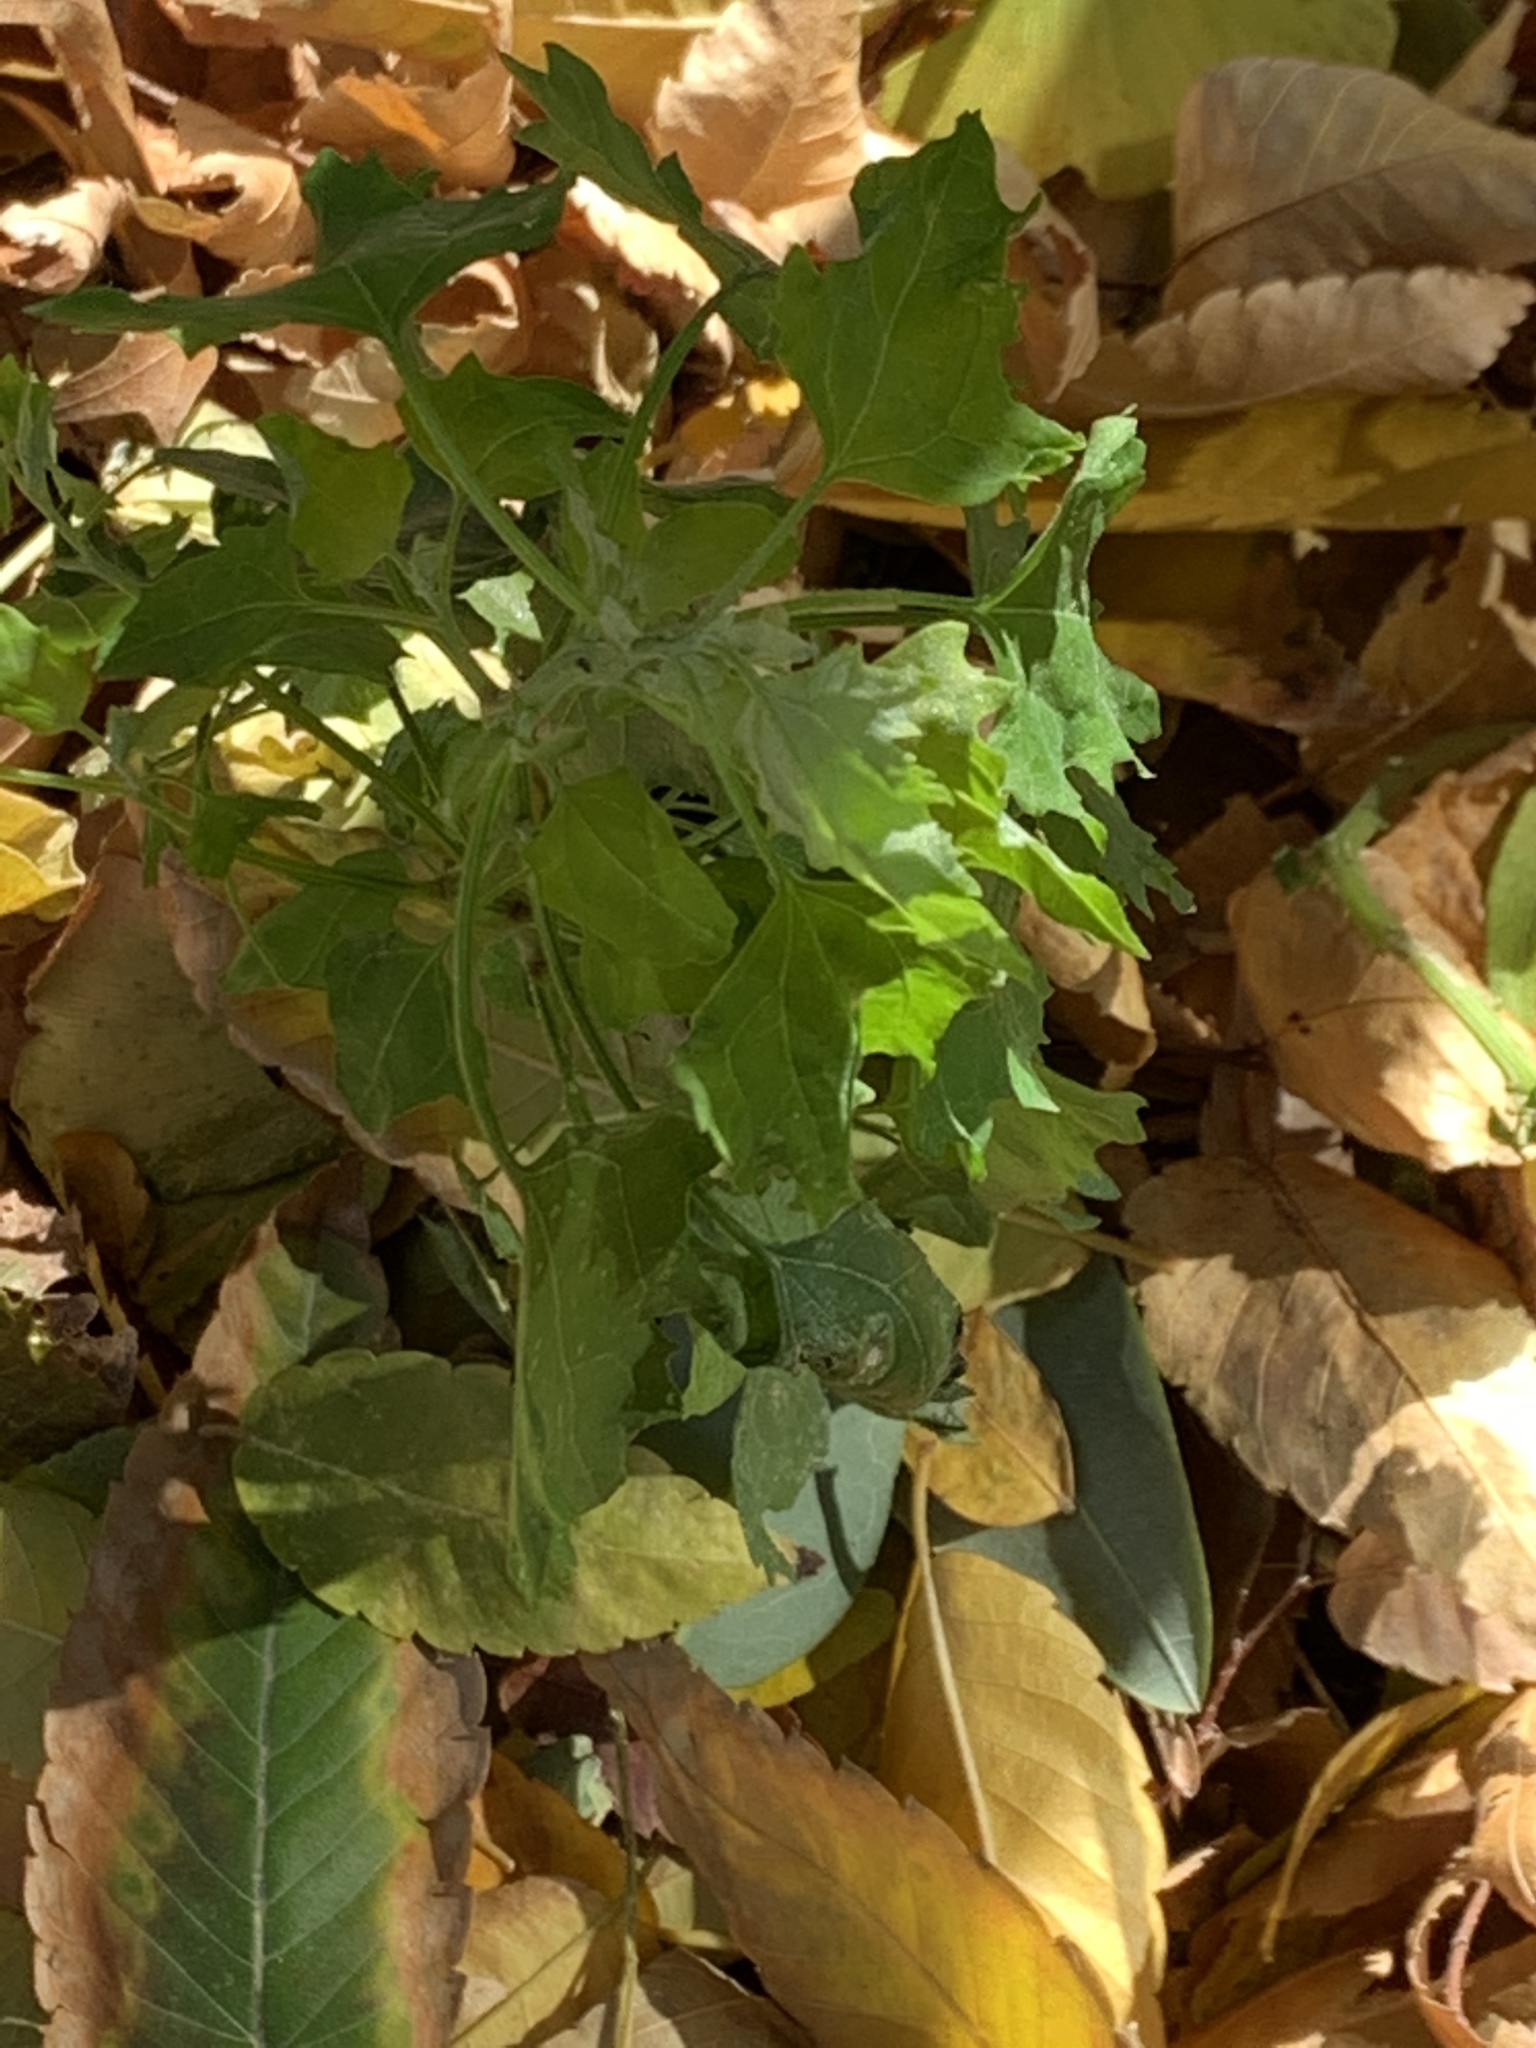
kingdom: Plantae
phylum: Tracheophyta
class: Magnoliopsida
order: Caryophyllales
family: Amaranthaceae
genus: Chenopodium
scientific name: Chenopodium album
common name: Fat-hen
